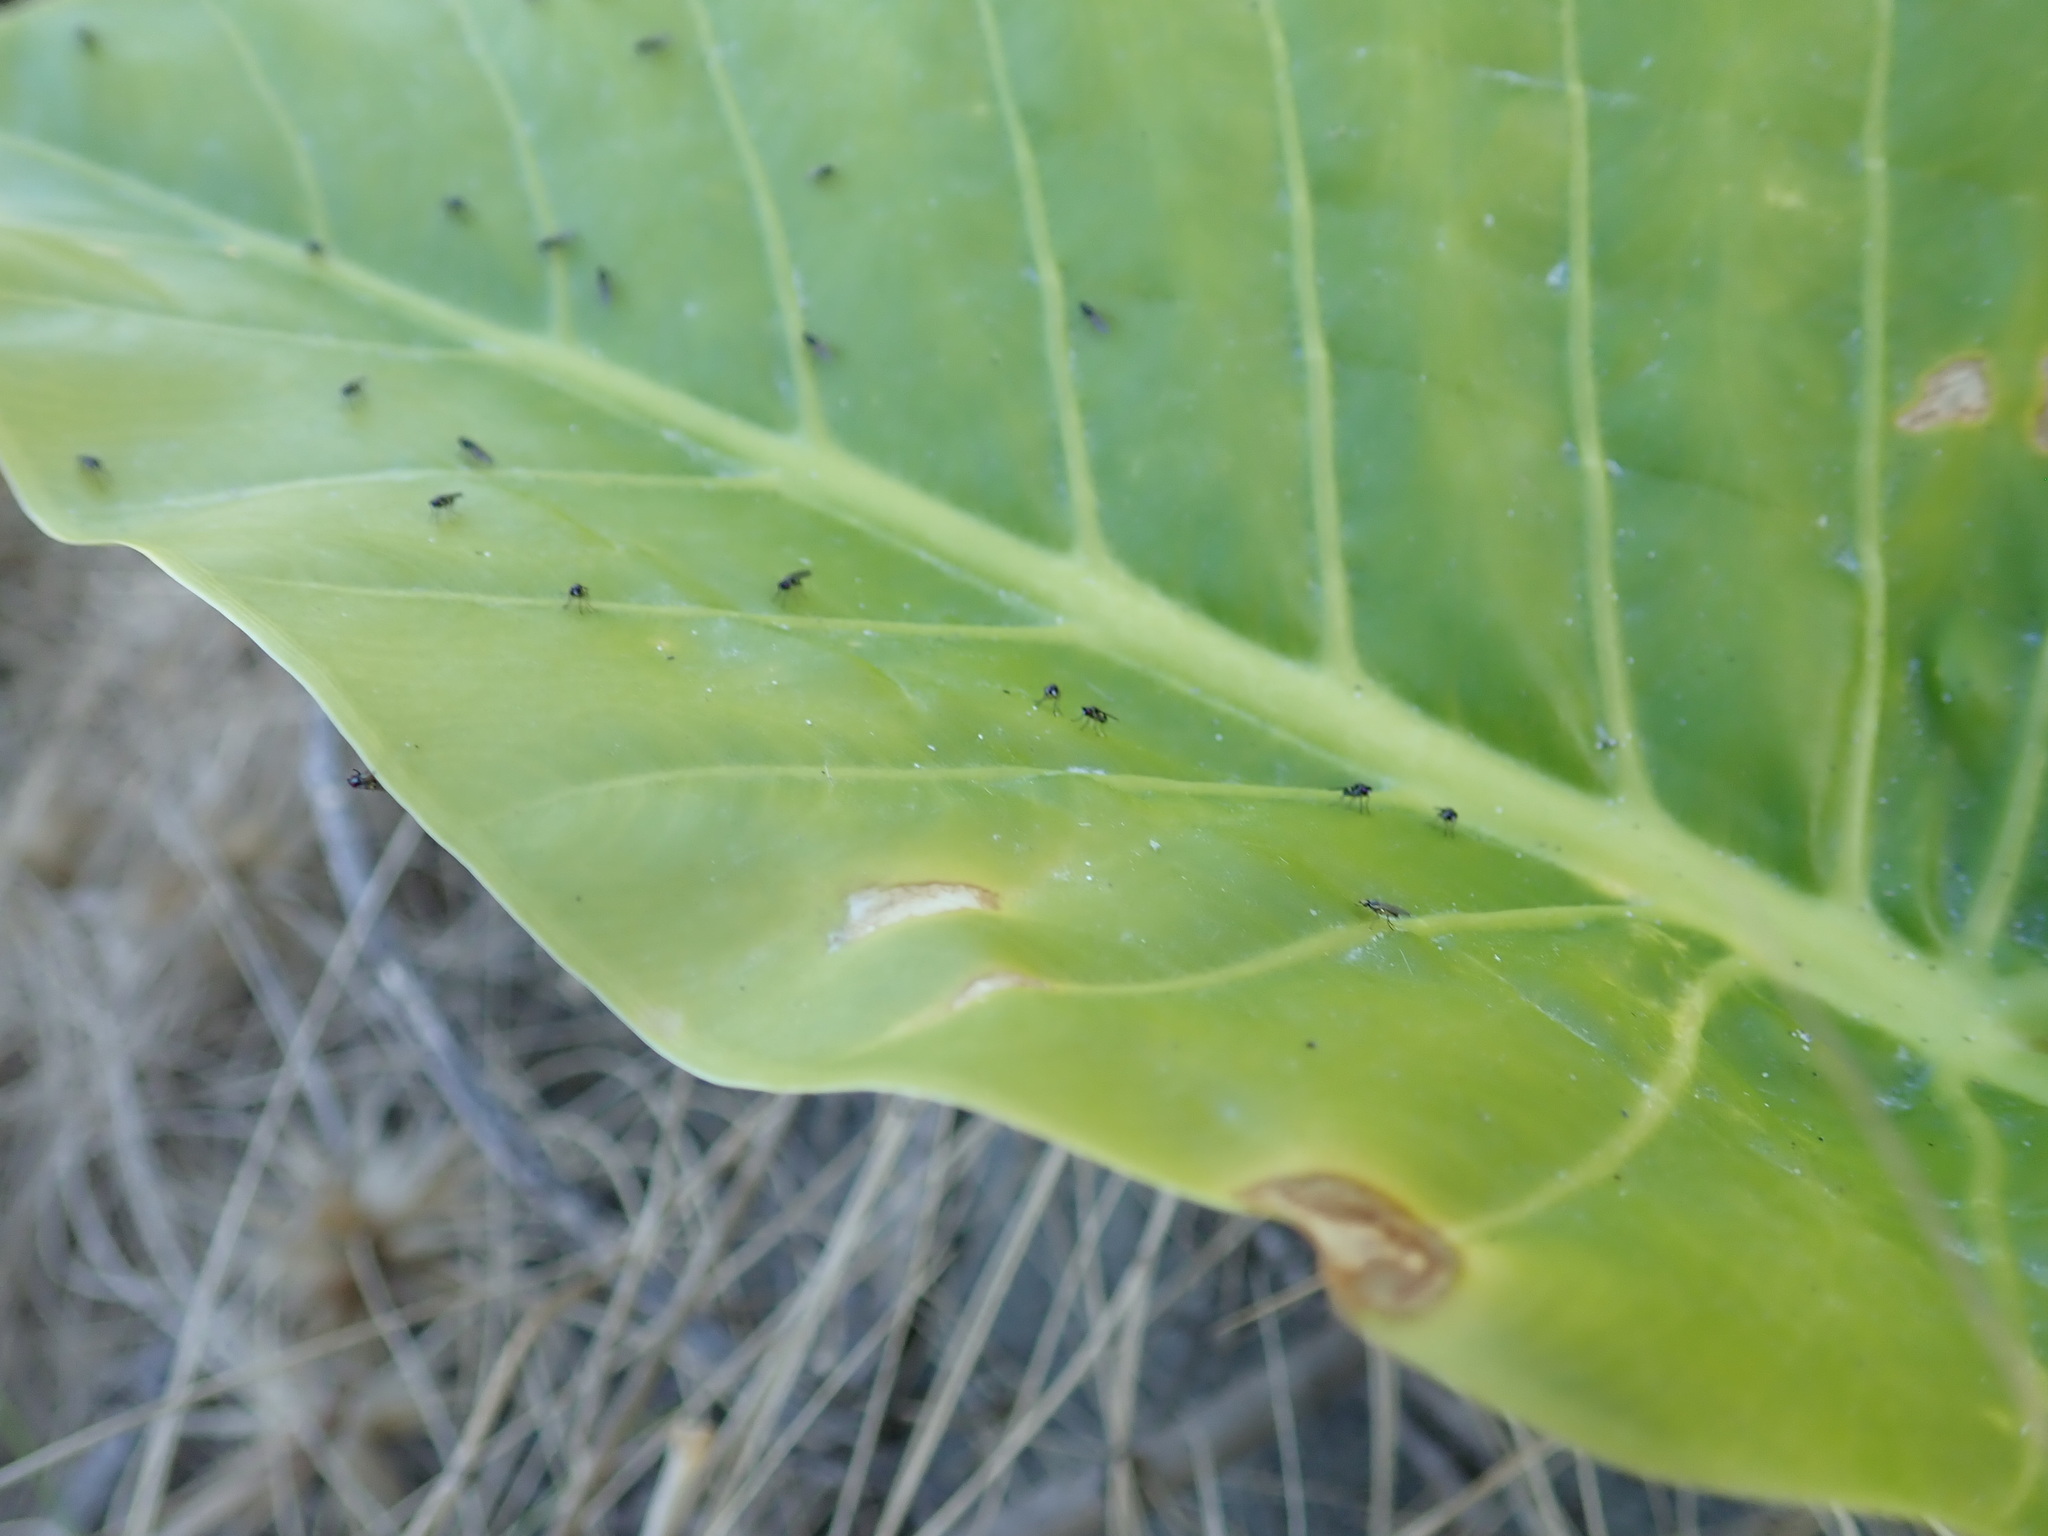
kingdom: Animalia
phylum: Arthropoda
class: Insecta
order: Diptera
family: Ephydridae
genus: Hydrellia
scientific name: Hydrellia tritici
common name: Shore fly
